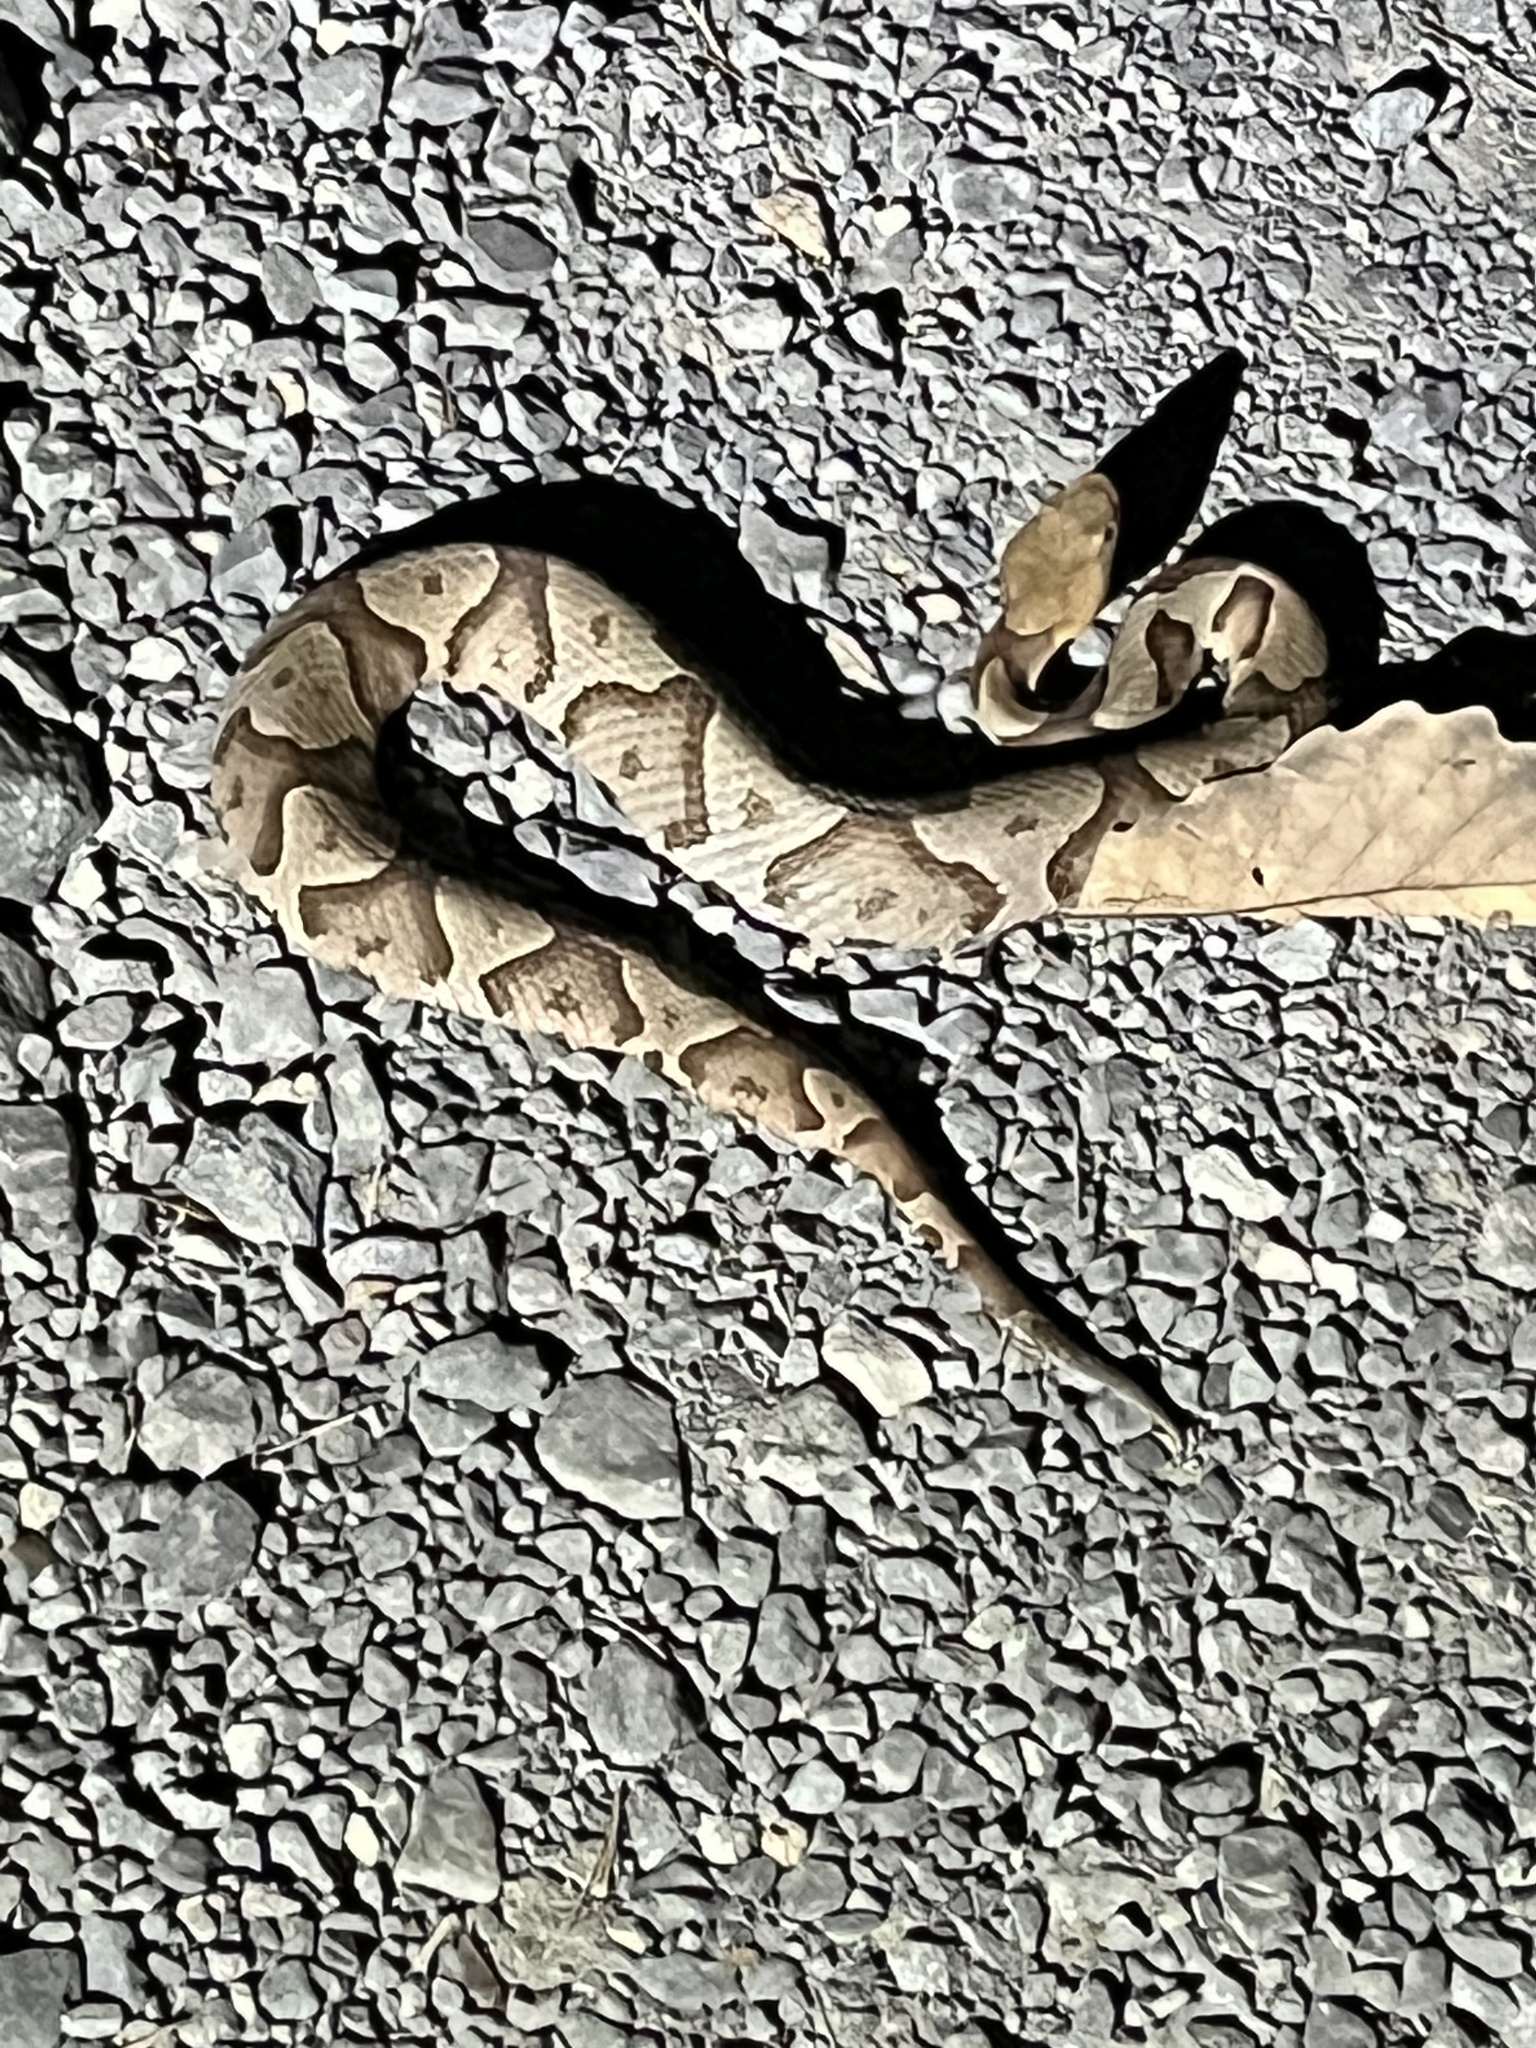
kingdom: Animalia
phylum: Chordata
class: Squamata
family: Viperidae
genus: Agkistrodon
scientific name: Agkistrodon contortrix
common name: Northern copperhead
